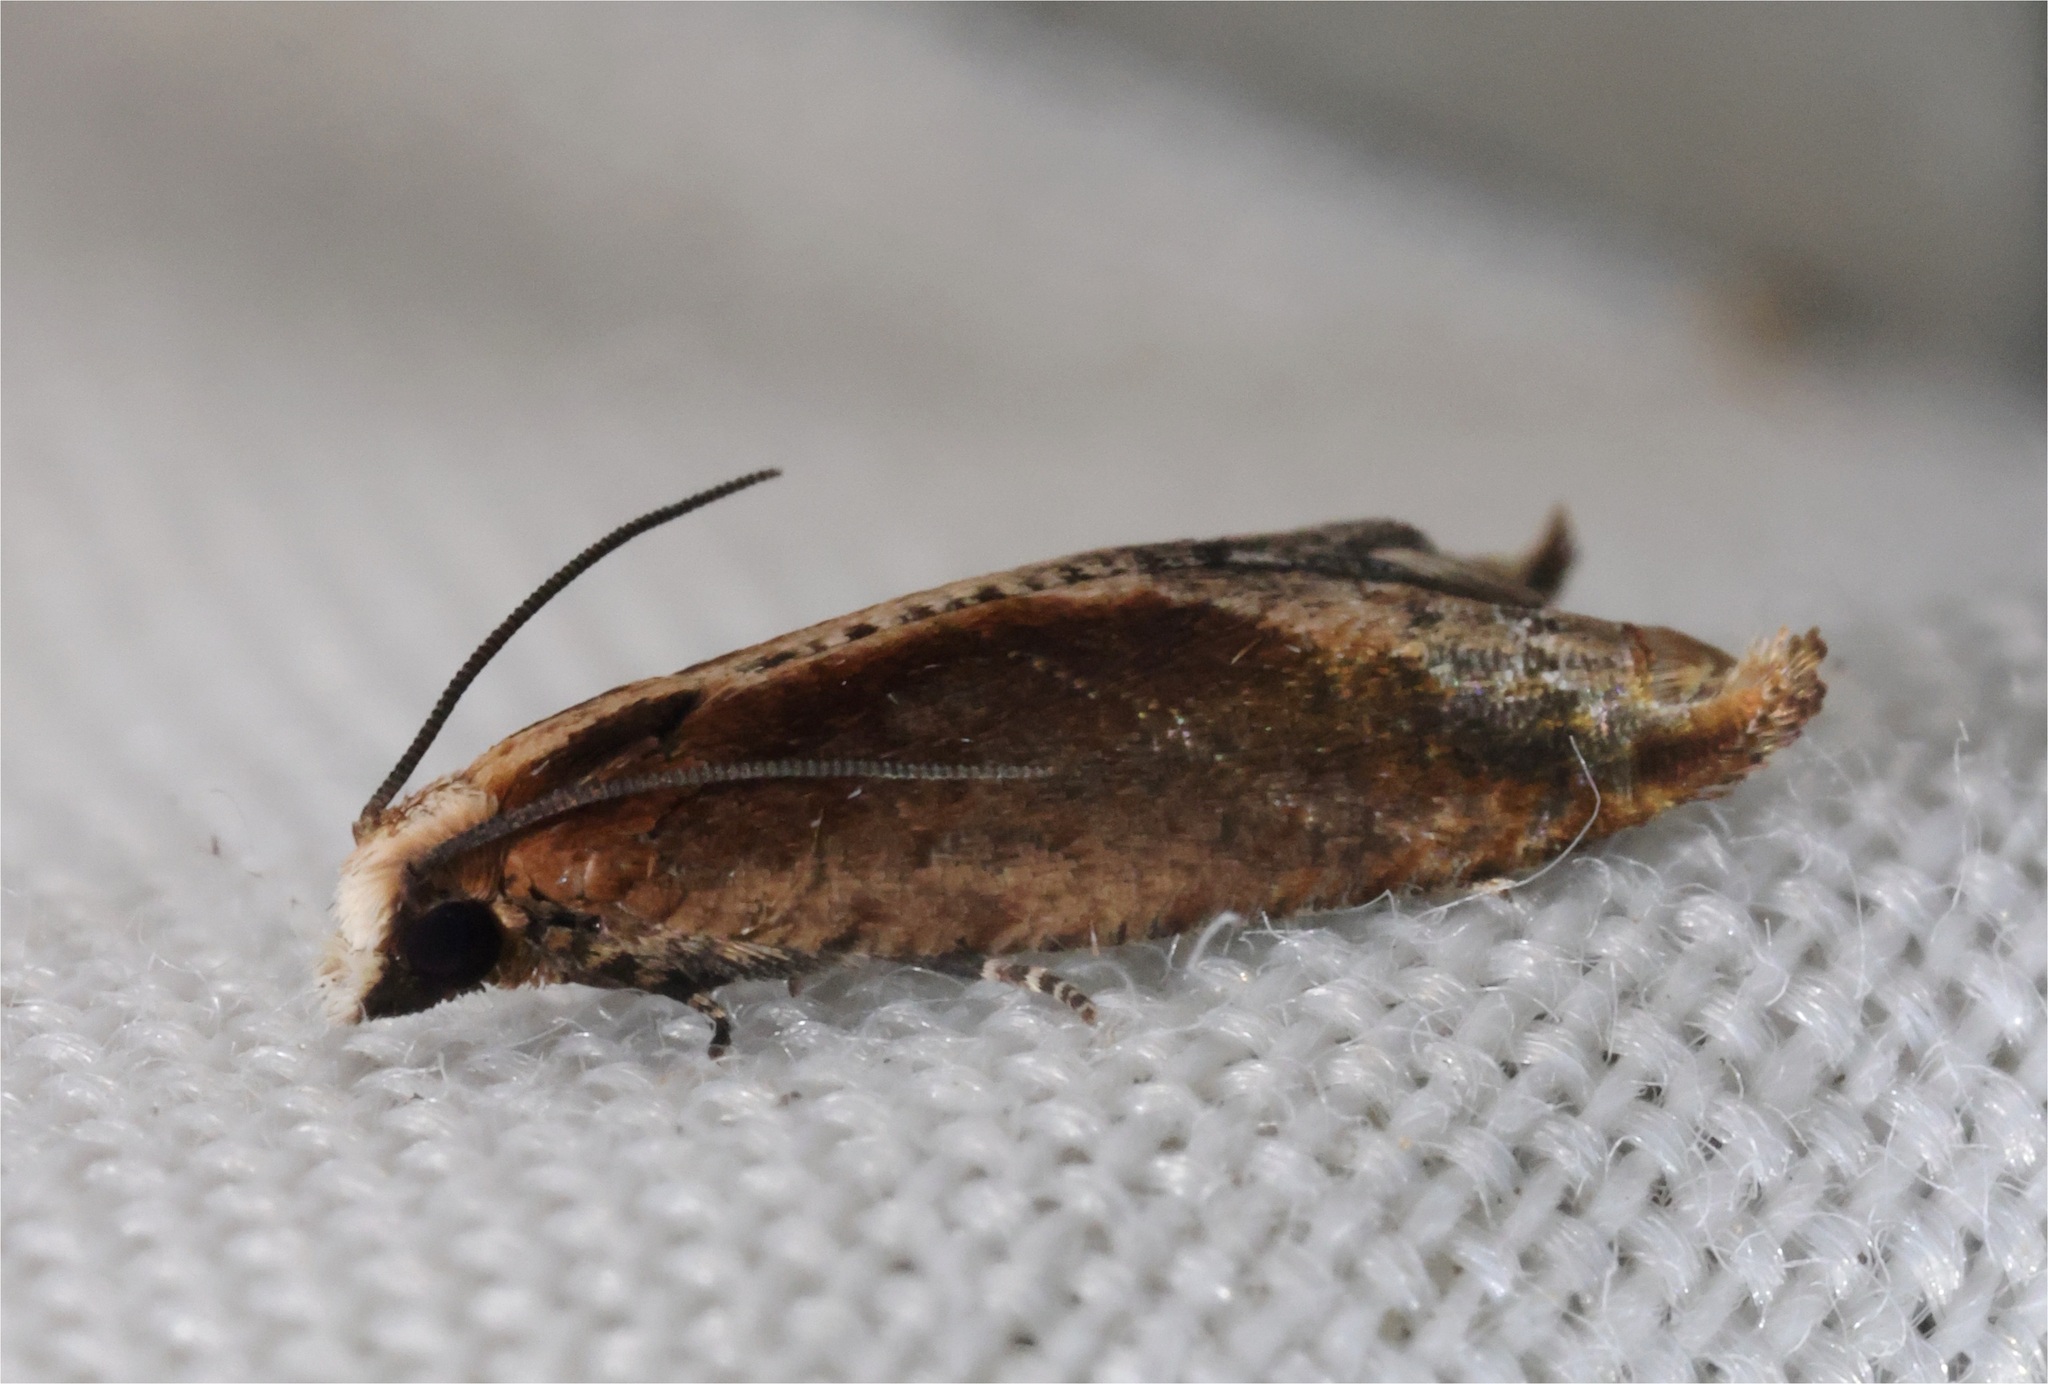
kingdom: Animalia
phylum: Arthropoda
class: Insecta
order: Lepidoptera
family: Tortricidae
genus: Spilonota
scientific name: Spilonota mortuana
